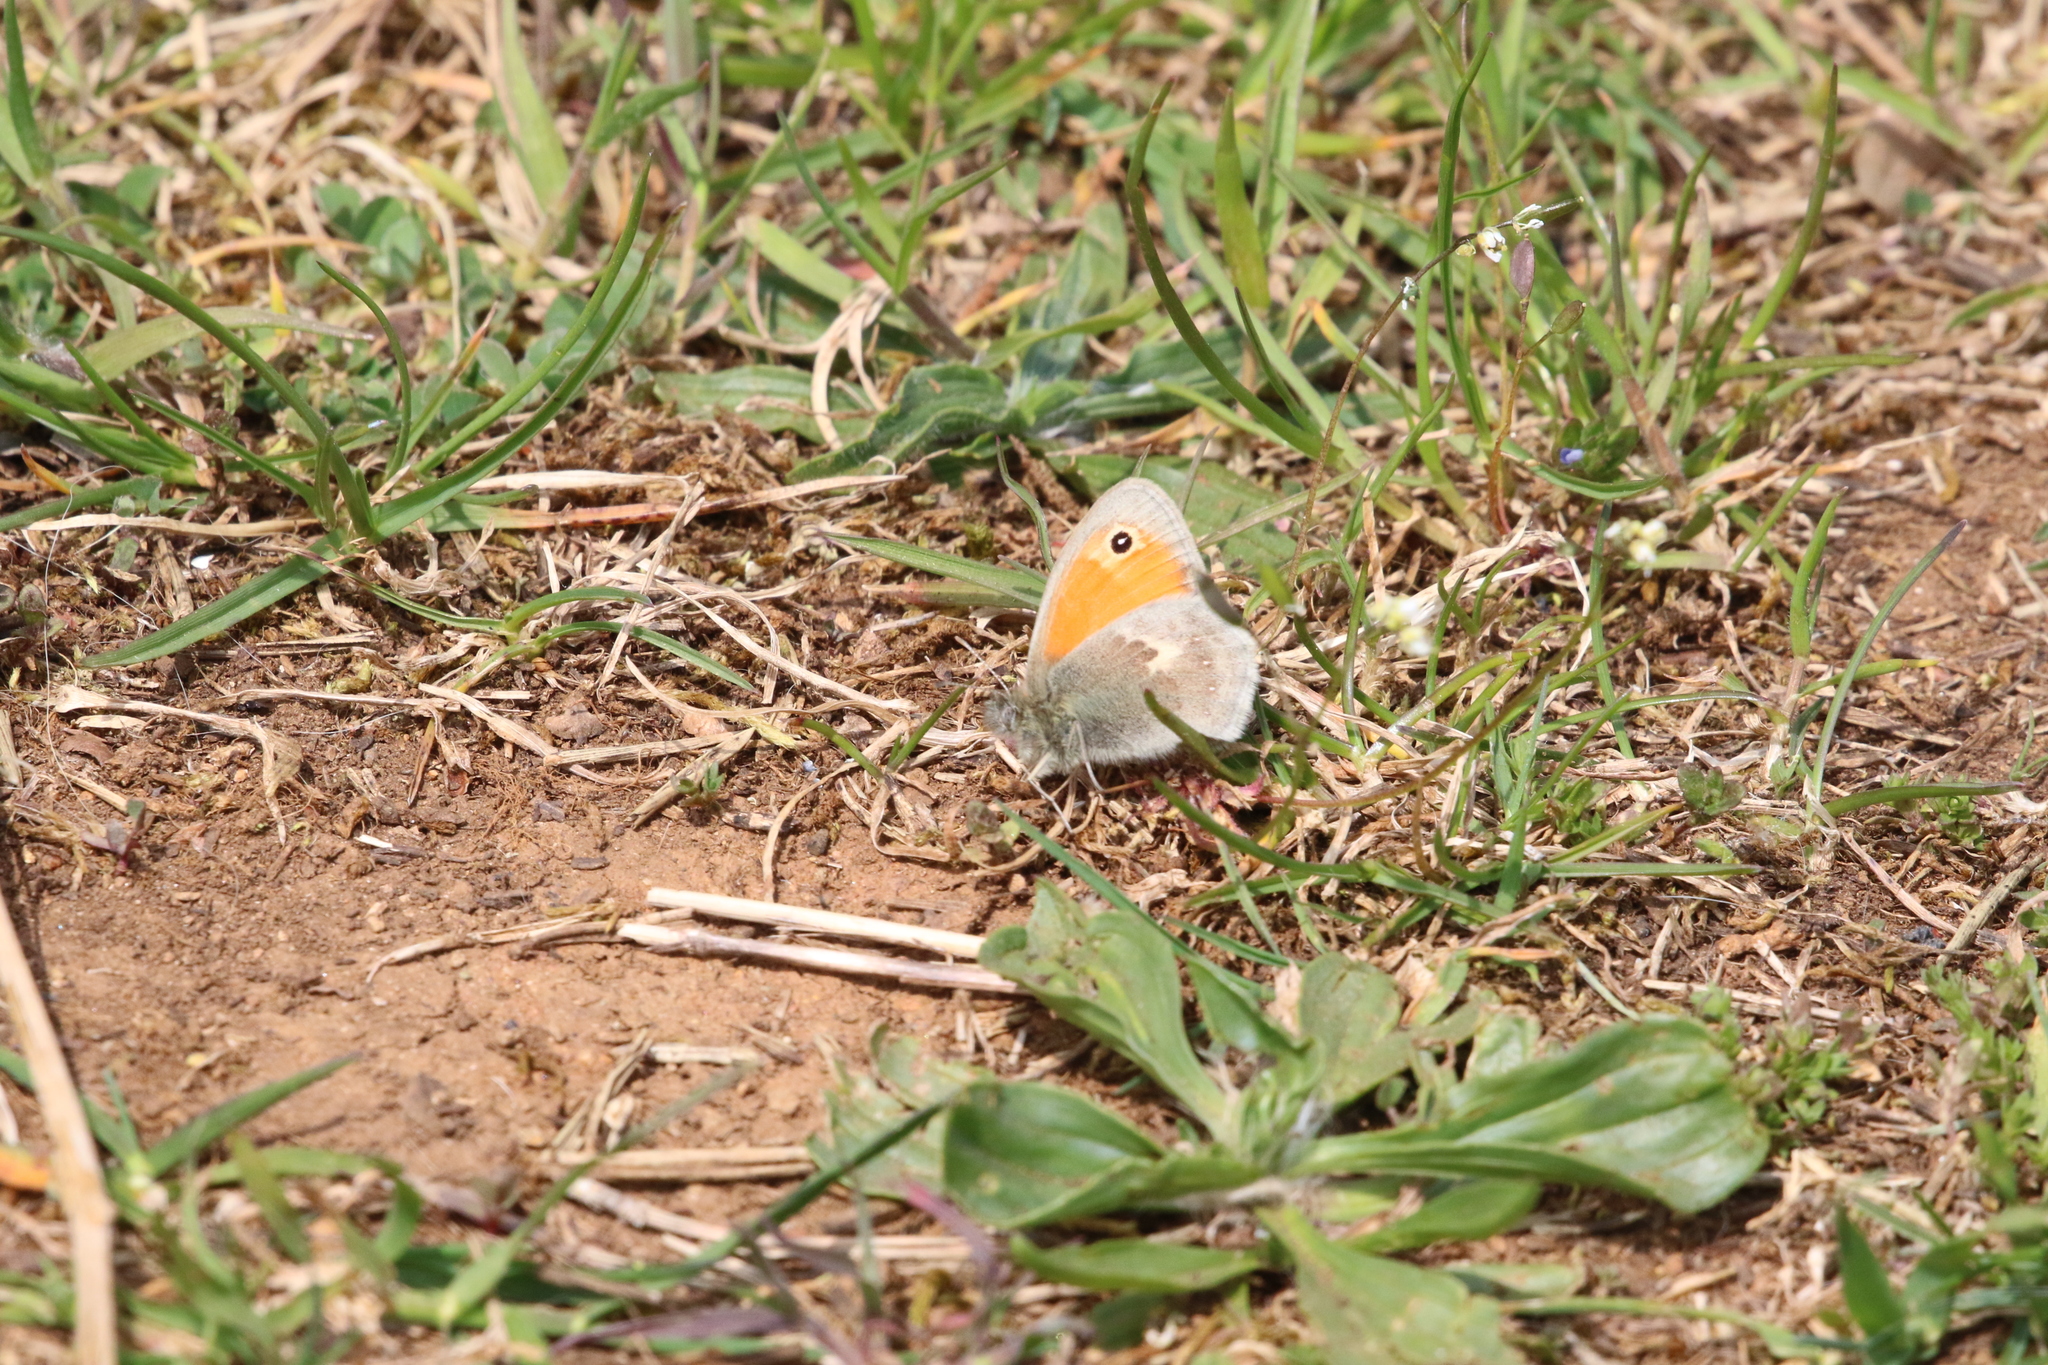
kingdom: Animalia
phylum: Arthropoda
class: Insecta
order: Lepidoptera
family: Nymphalidae
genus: Coenonympha
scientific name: Coenonympha pamphilus
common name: Small heath
